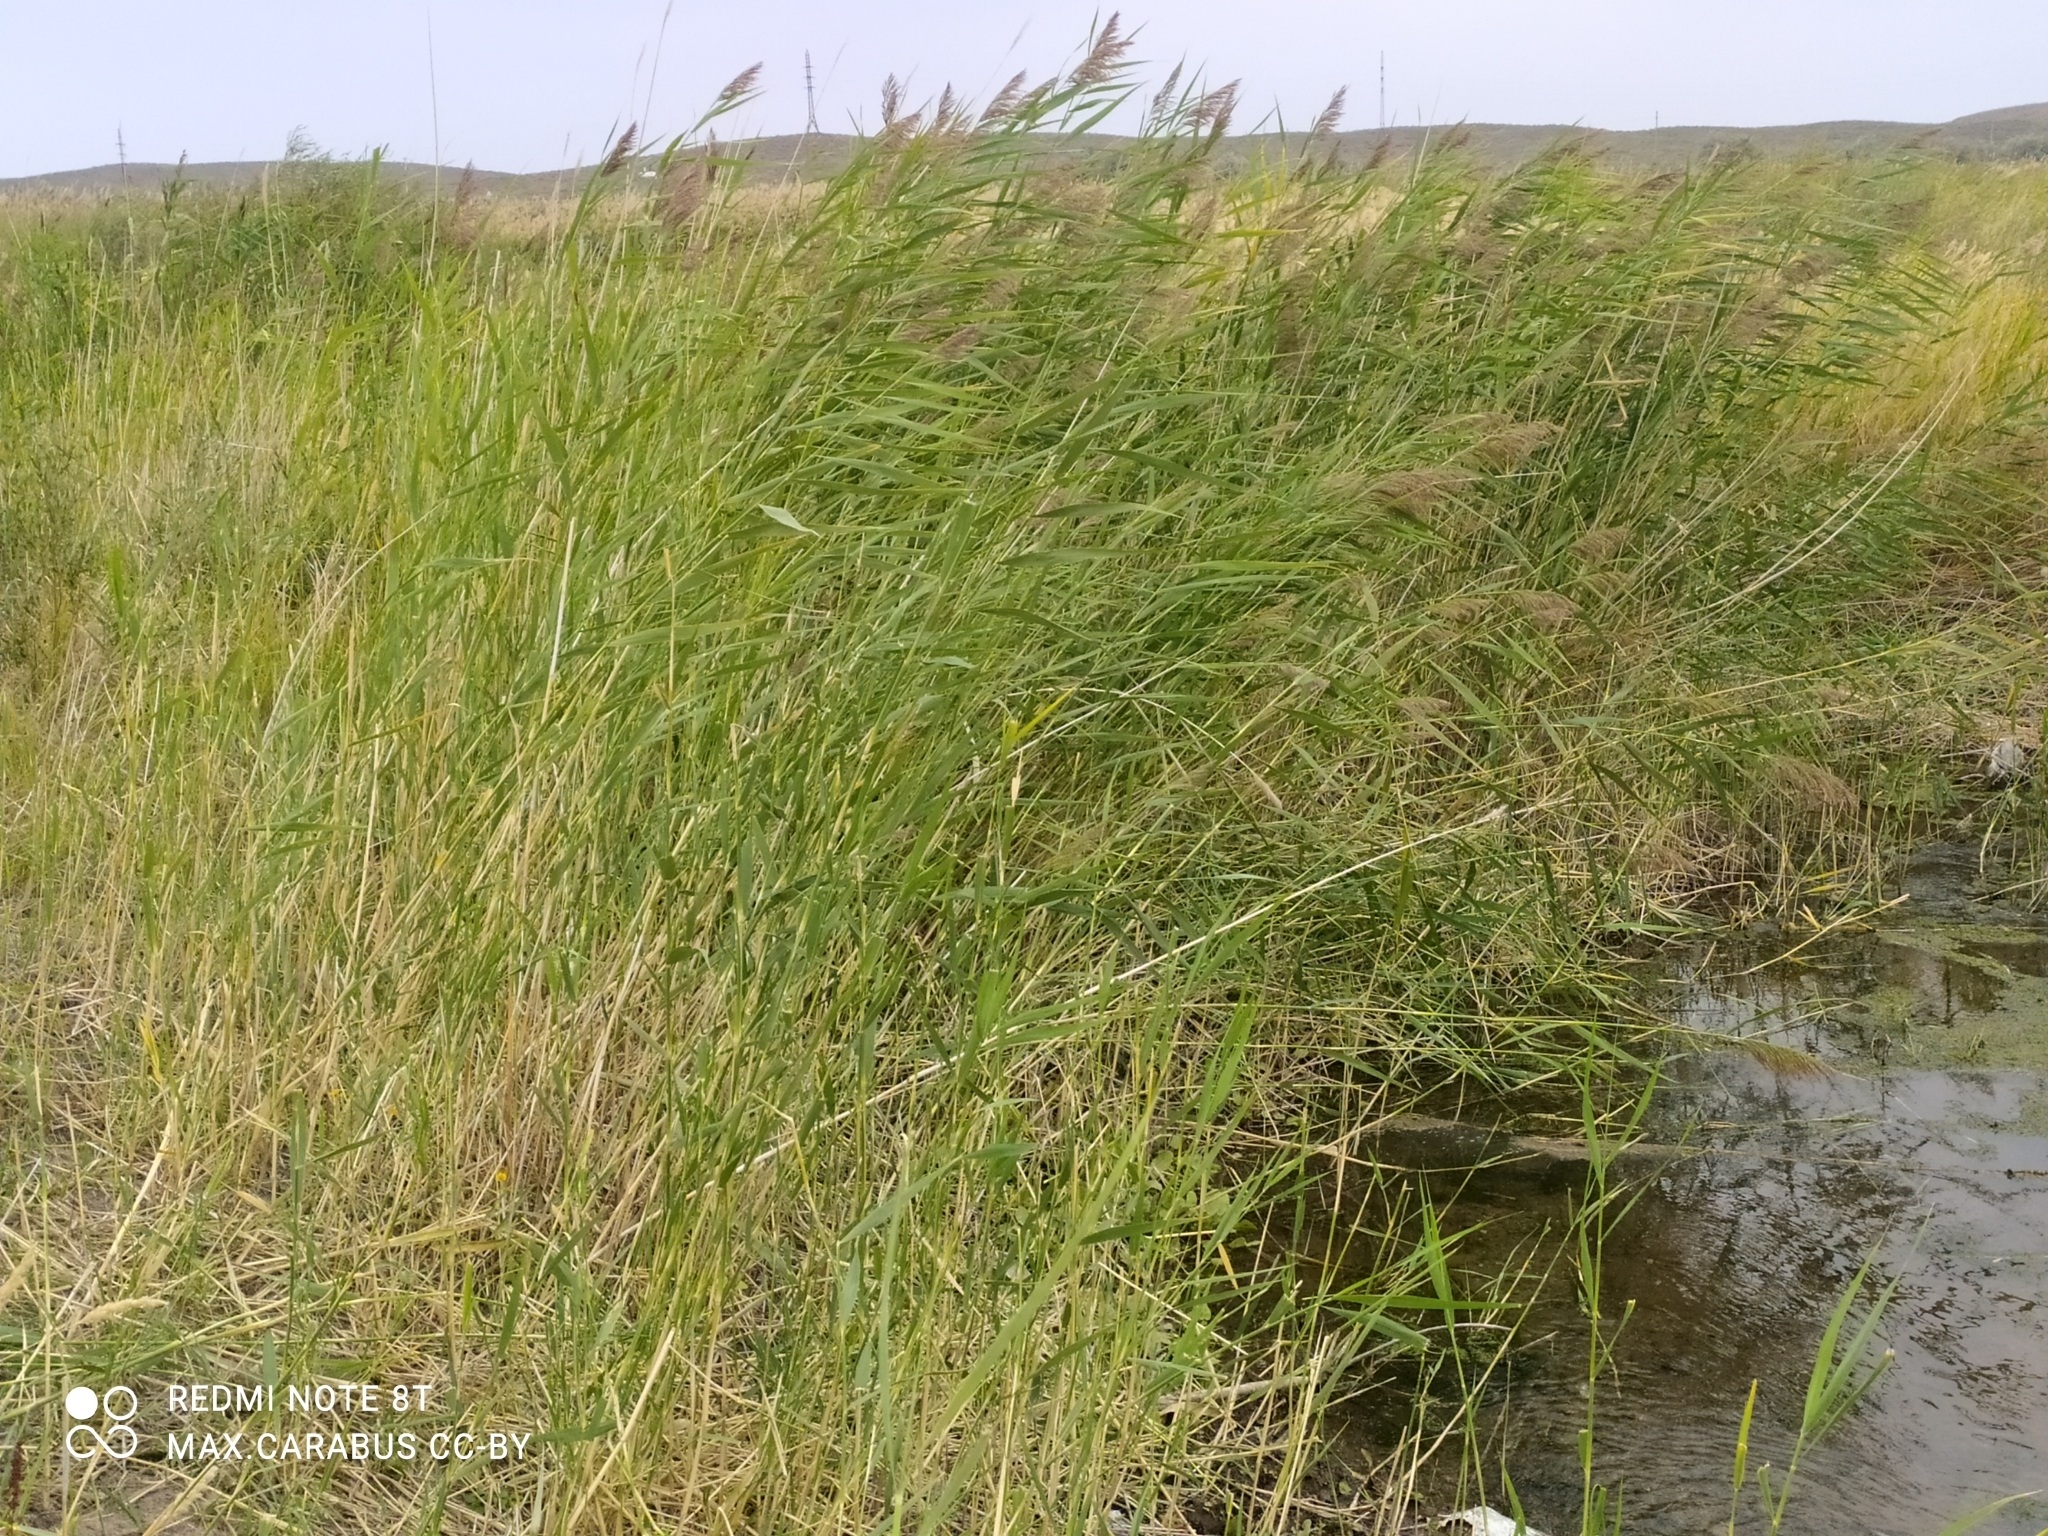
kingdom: Plantae
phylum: Tracheophyta
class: Liliopsida
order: Poales
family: Poaceae
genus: Phragmites
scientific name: Phragmites australis
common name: Common reed
